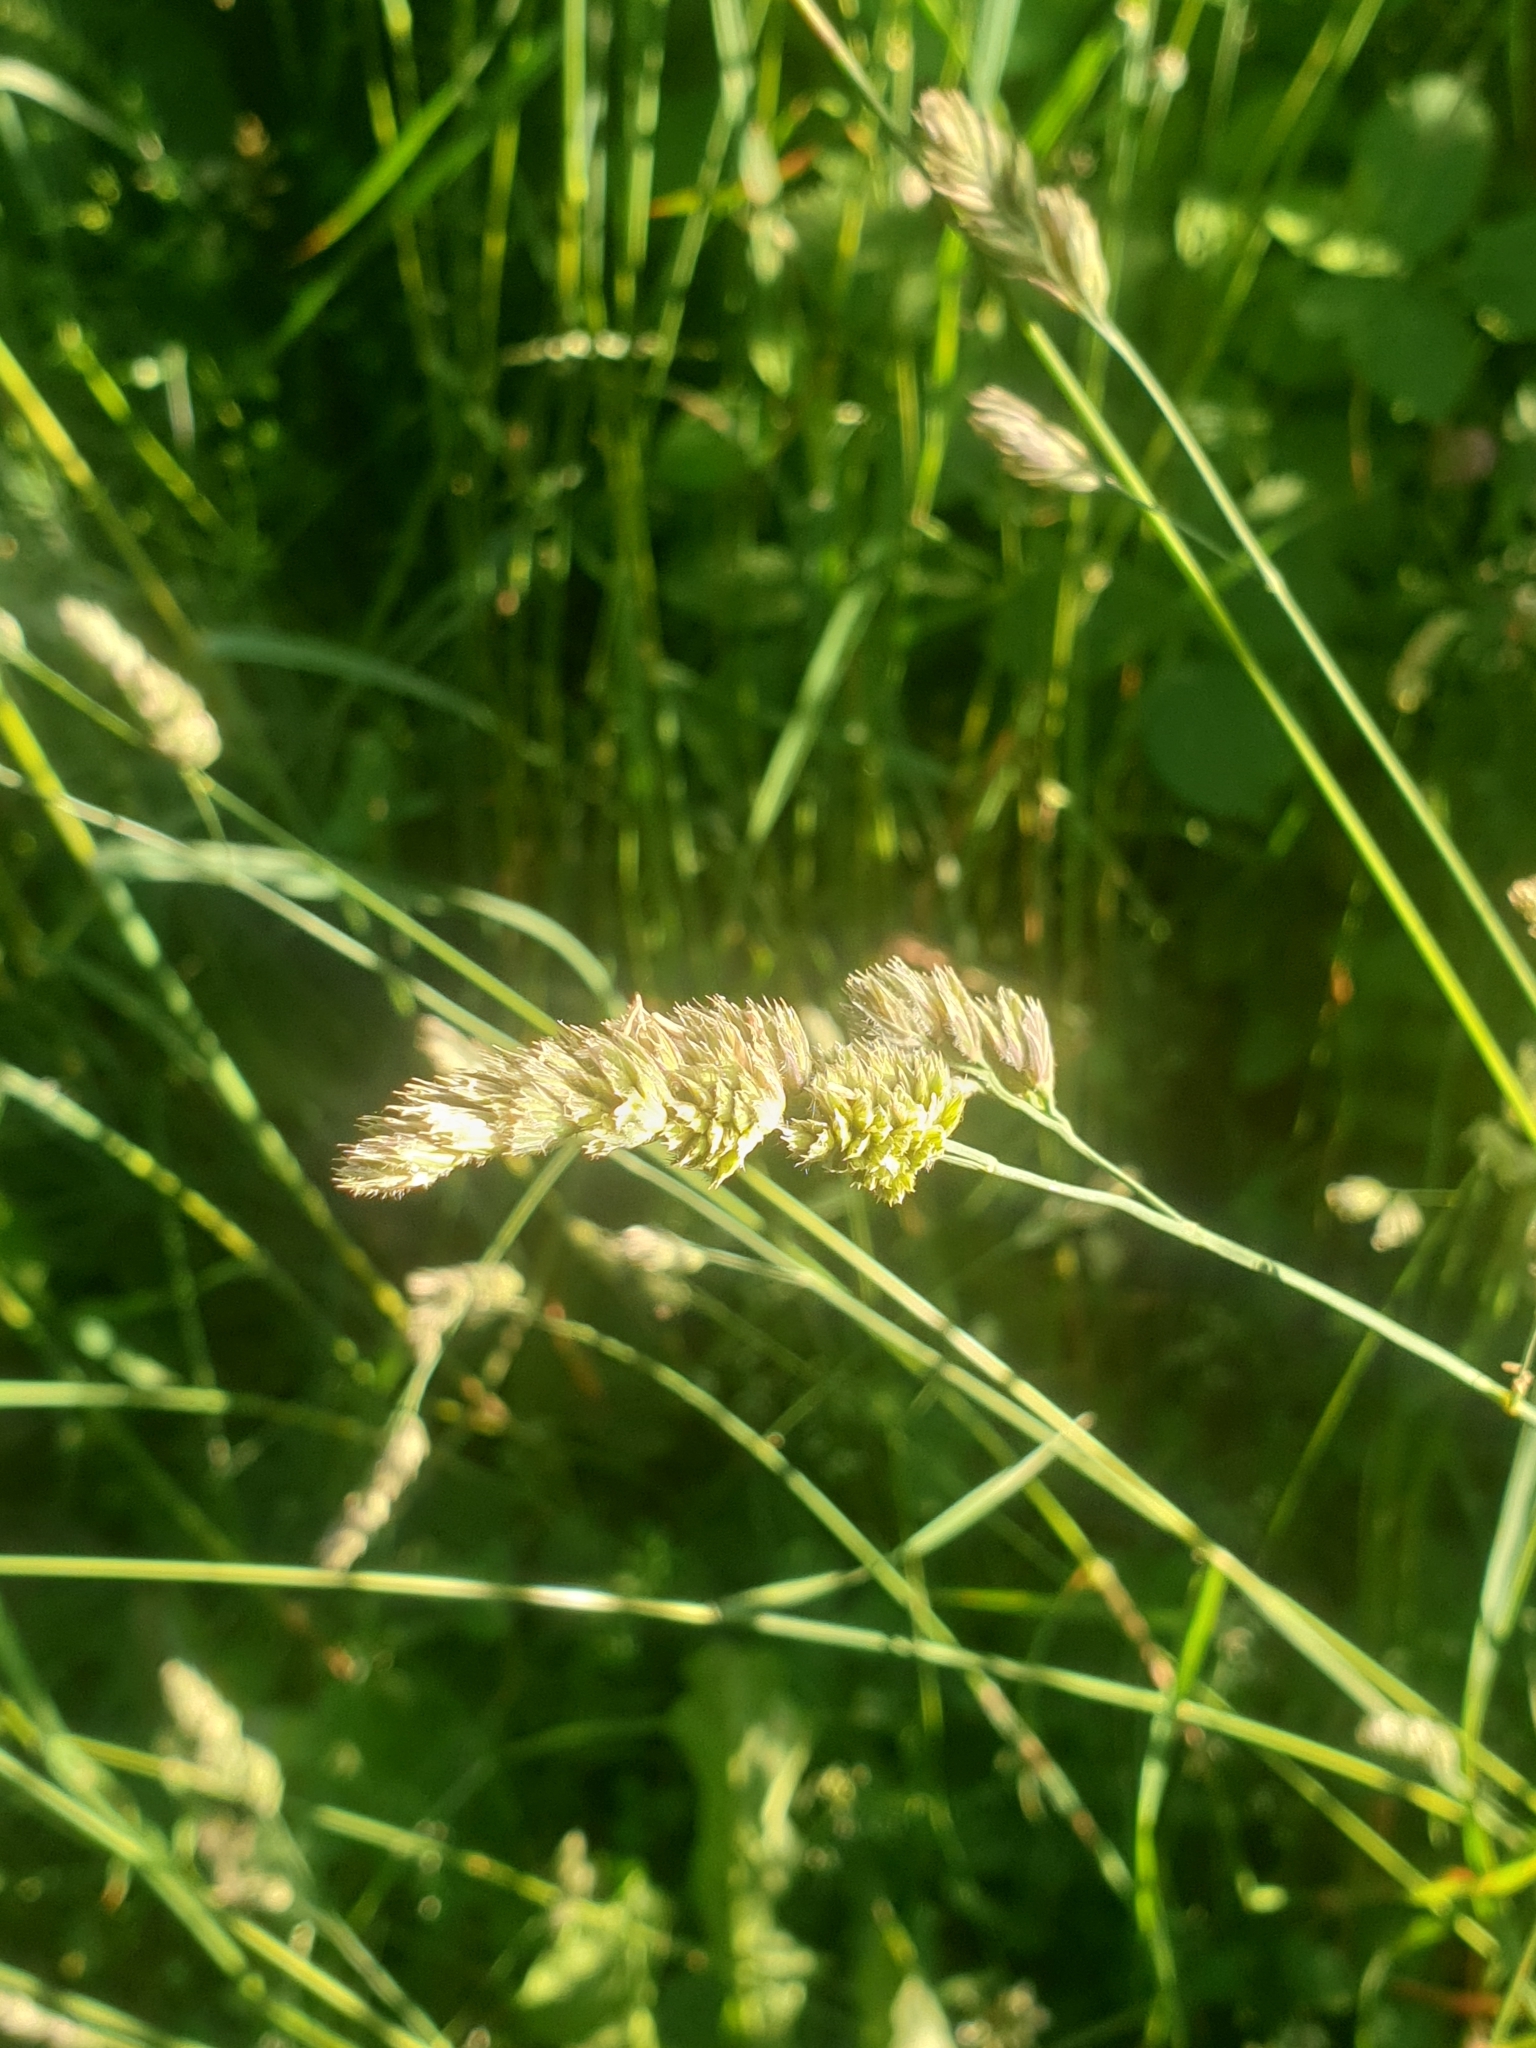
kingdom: Plantae
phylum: Tracheophyta
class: Liliopsida
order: Poales
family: Poaceae
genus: Dactylis
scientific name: Dactylis glomerata
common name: Orchardgrass
